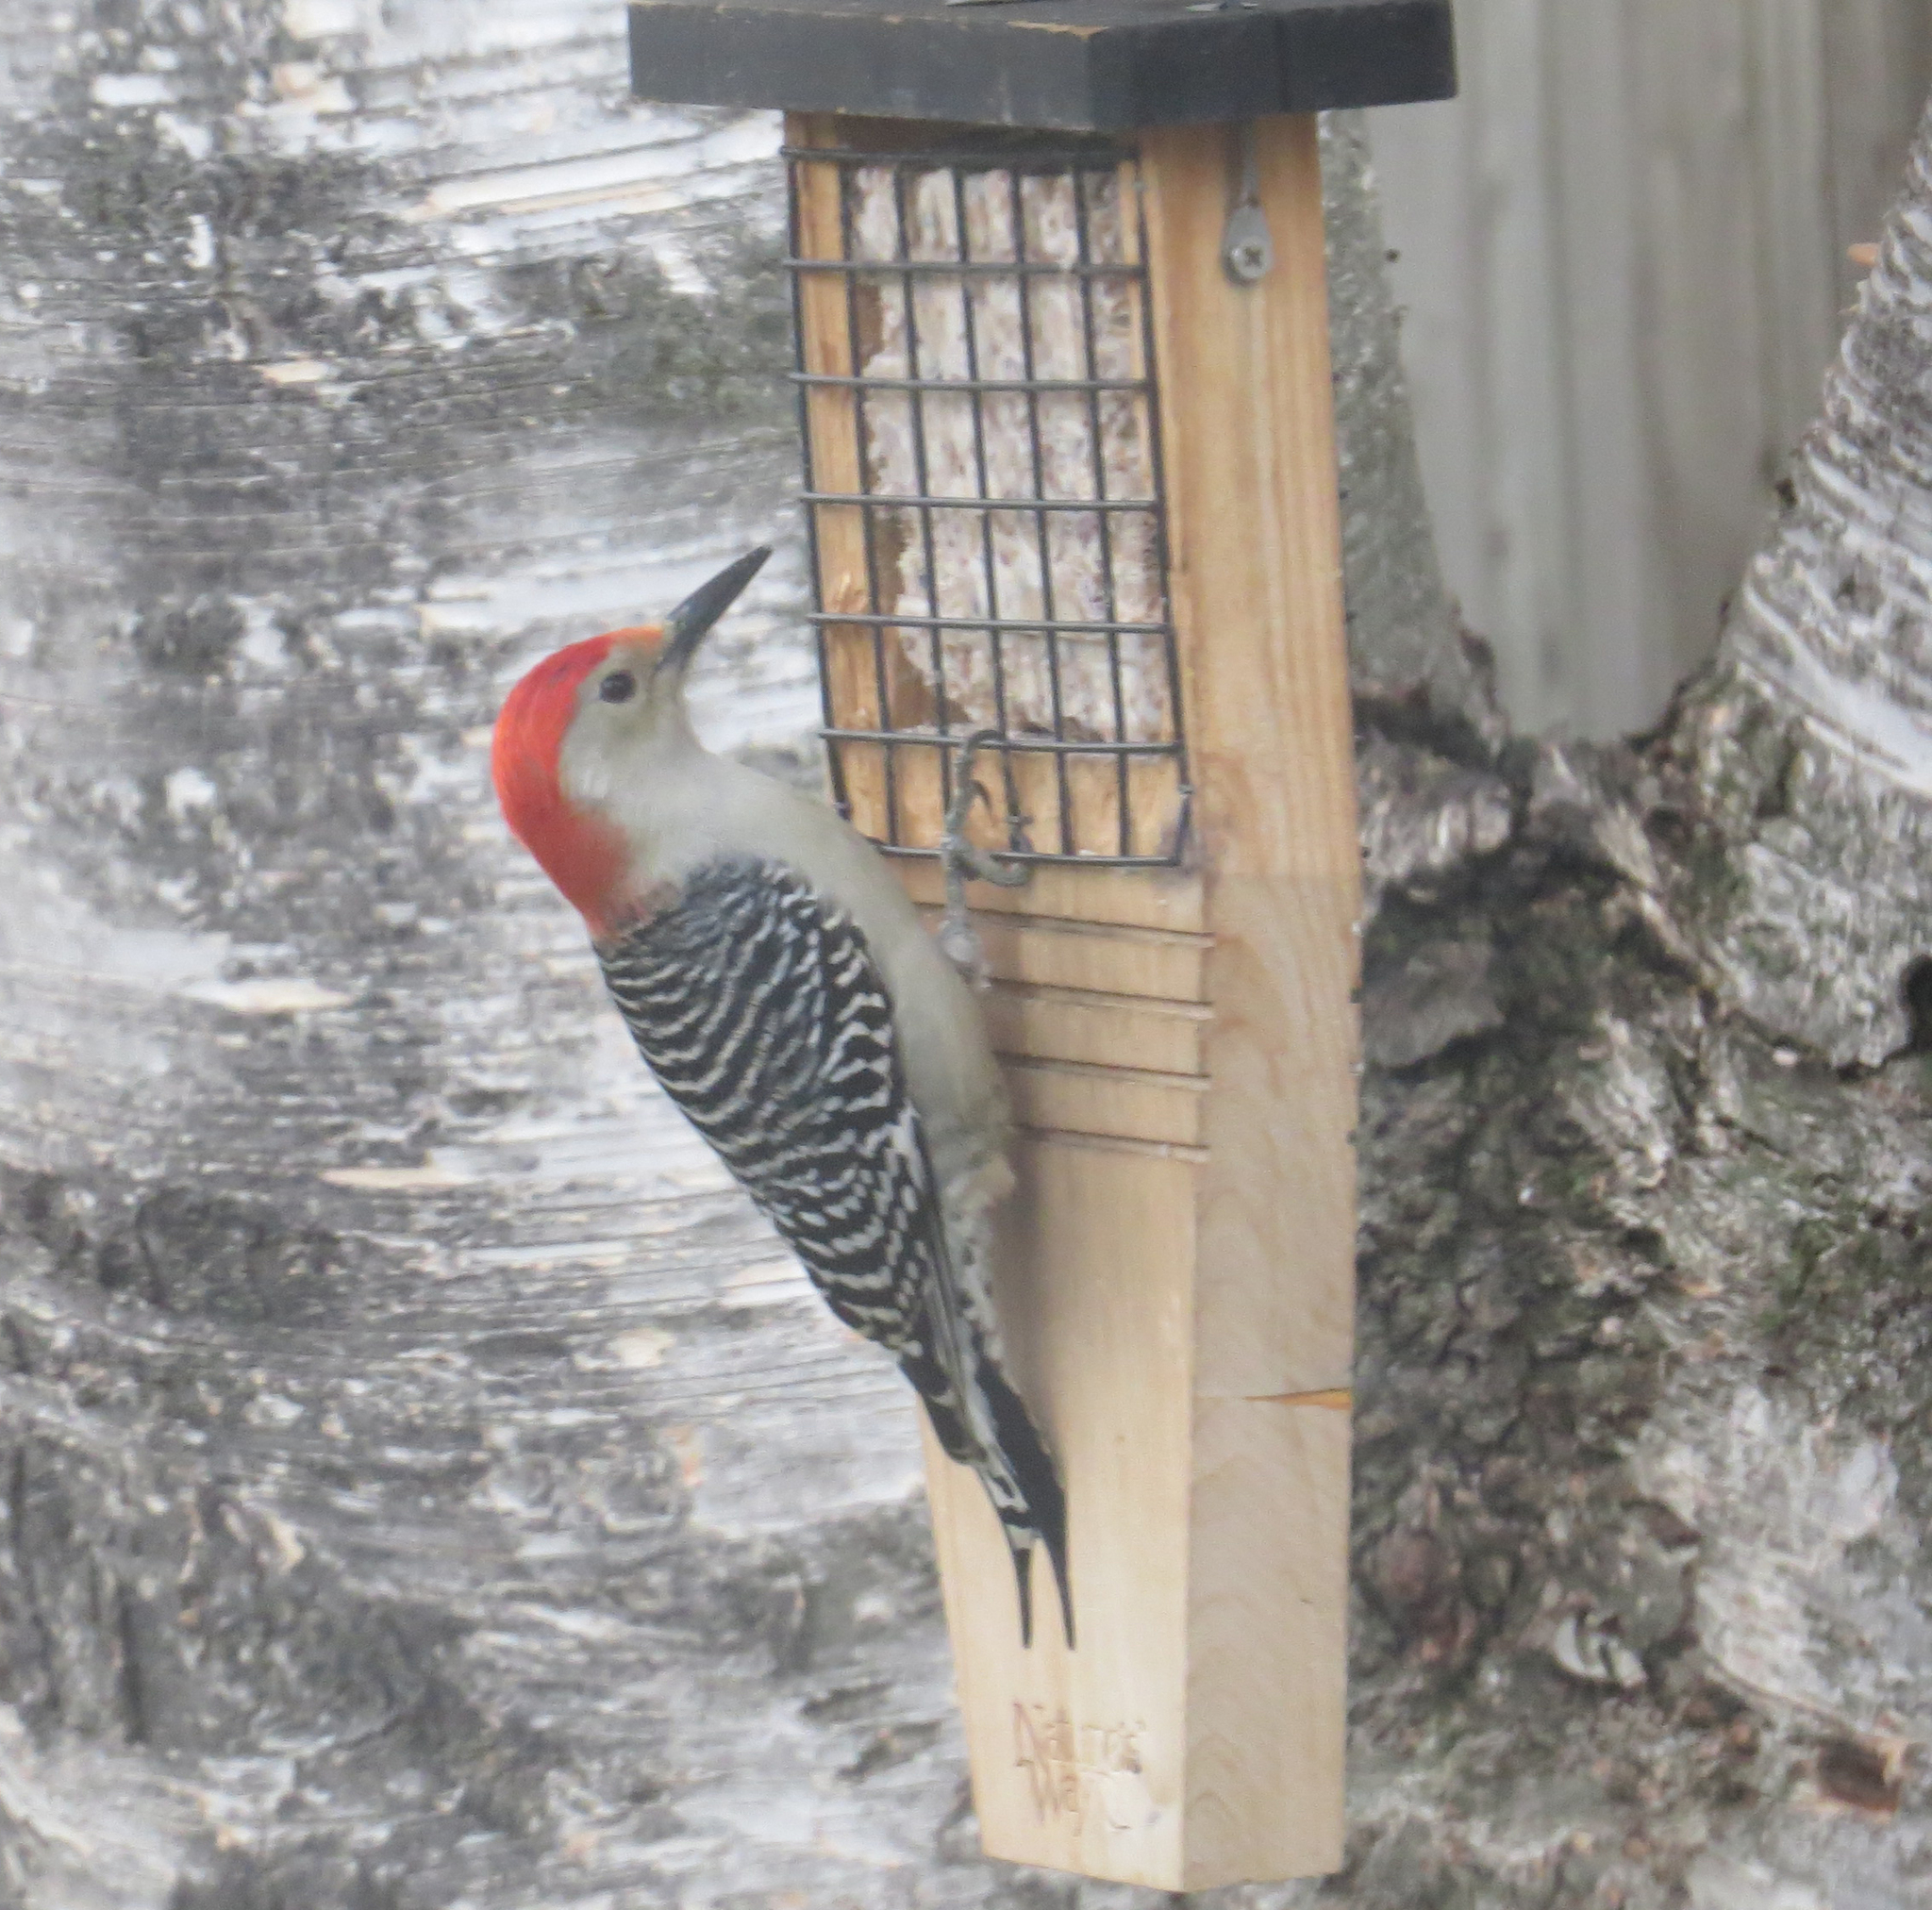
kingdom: Animalia
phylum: Chordata
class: Aves
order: Piciformes
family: Picidae
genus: Melanerpes
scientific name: Melanerpes carolinus
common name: Red-bellied woodpecker
